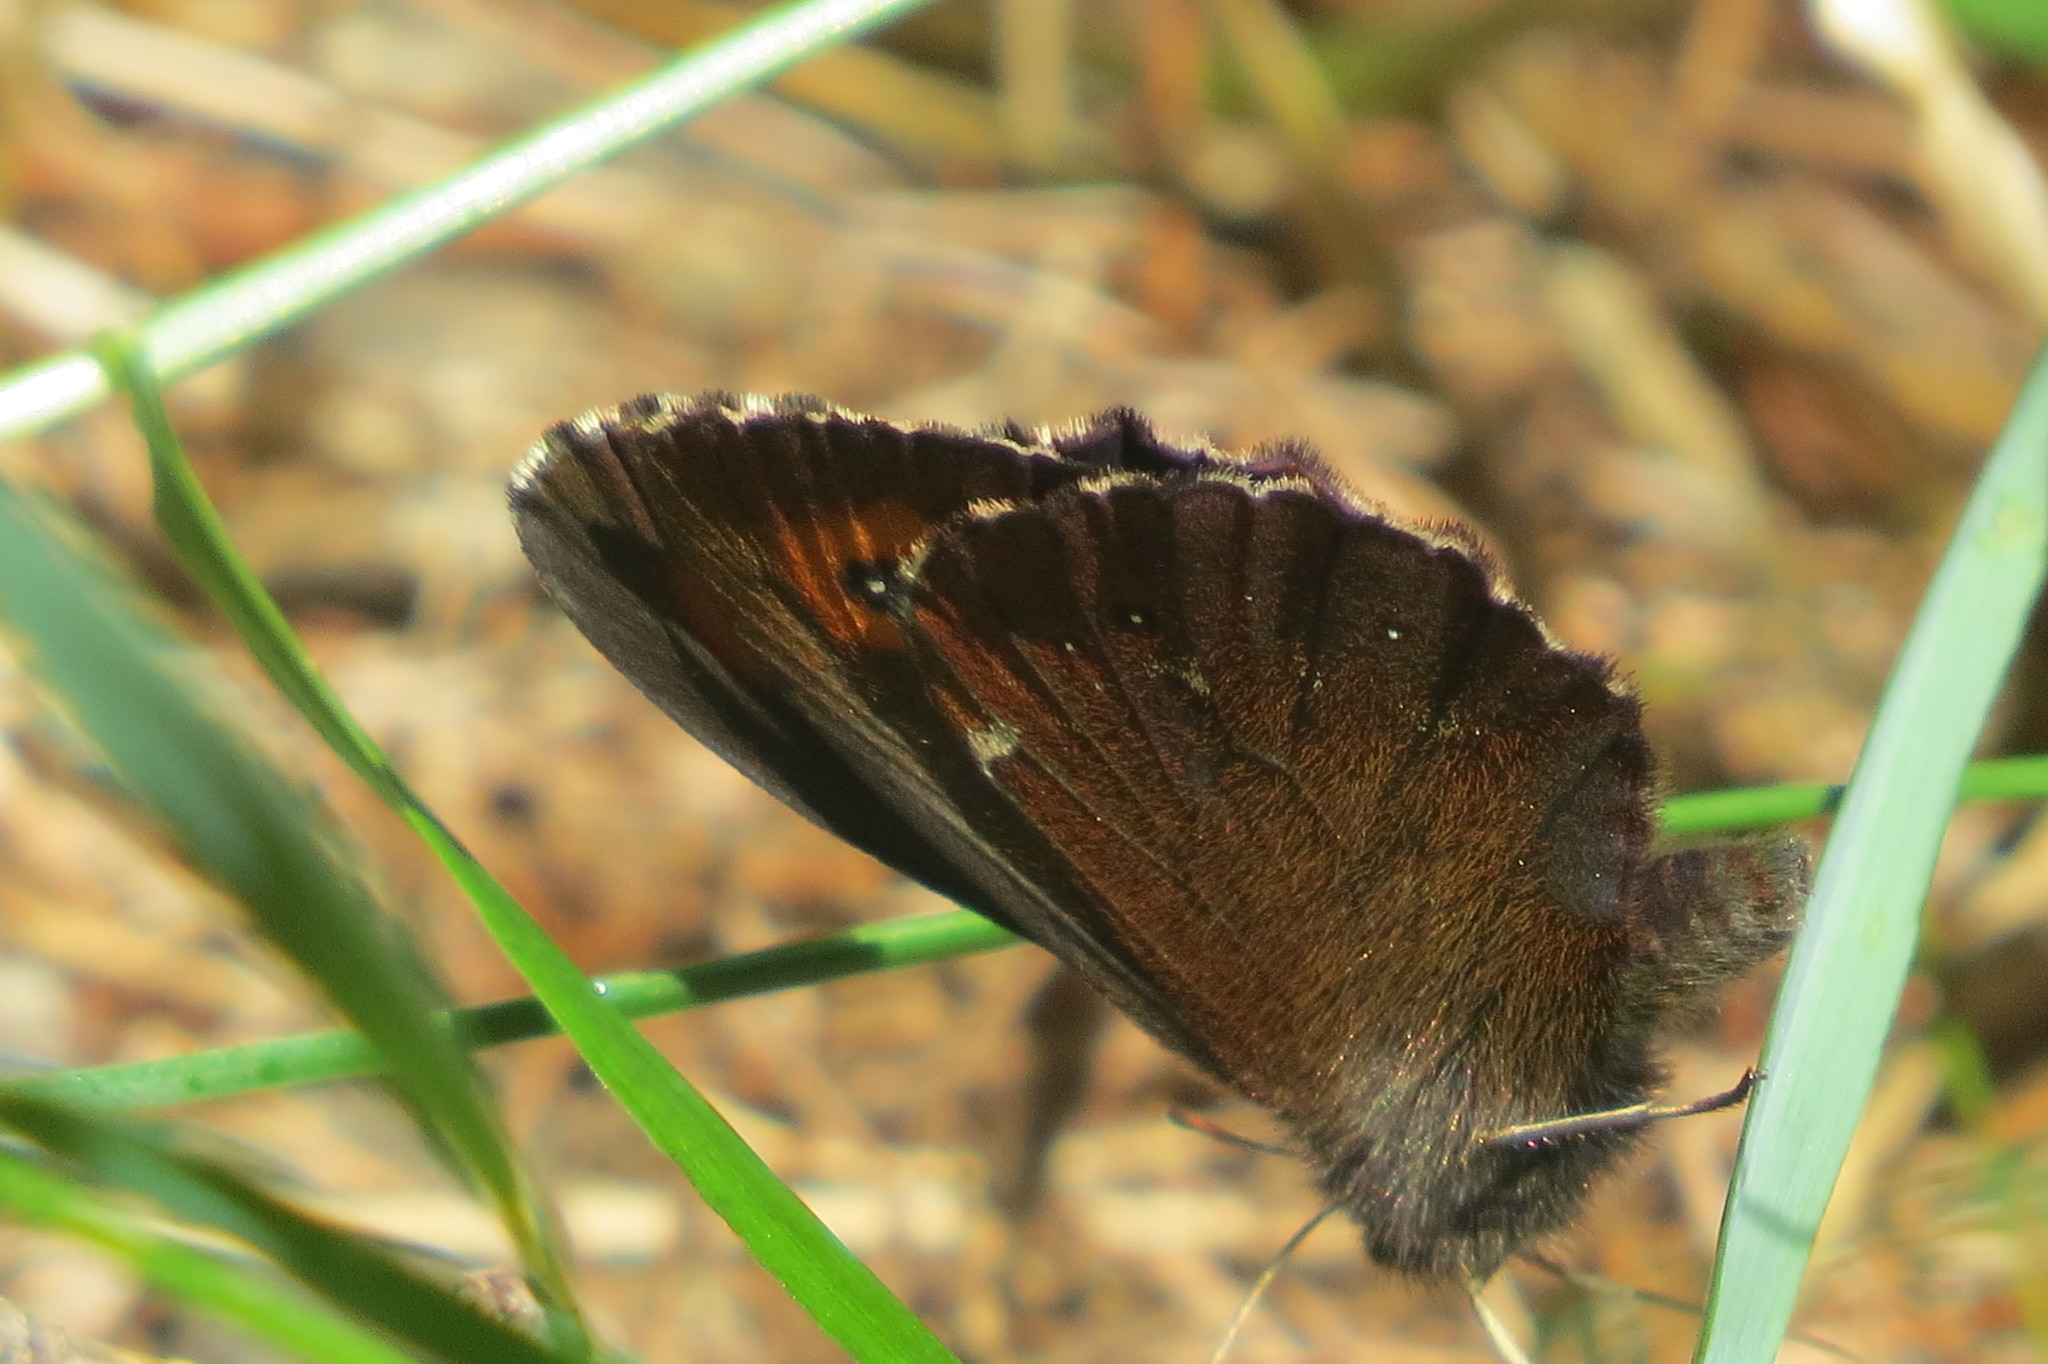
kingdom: Animalia
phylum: Arthropoda
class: Insecta
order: Lepidoptera
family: Nymphalidae
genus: Erebia
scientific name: Erebia euryale
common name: Large ringlet
